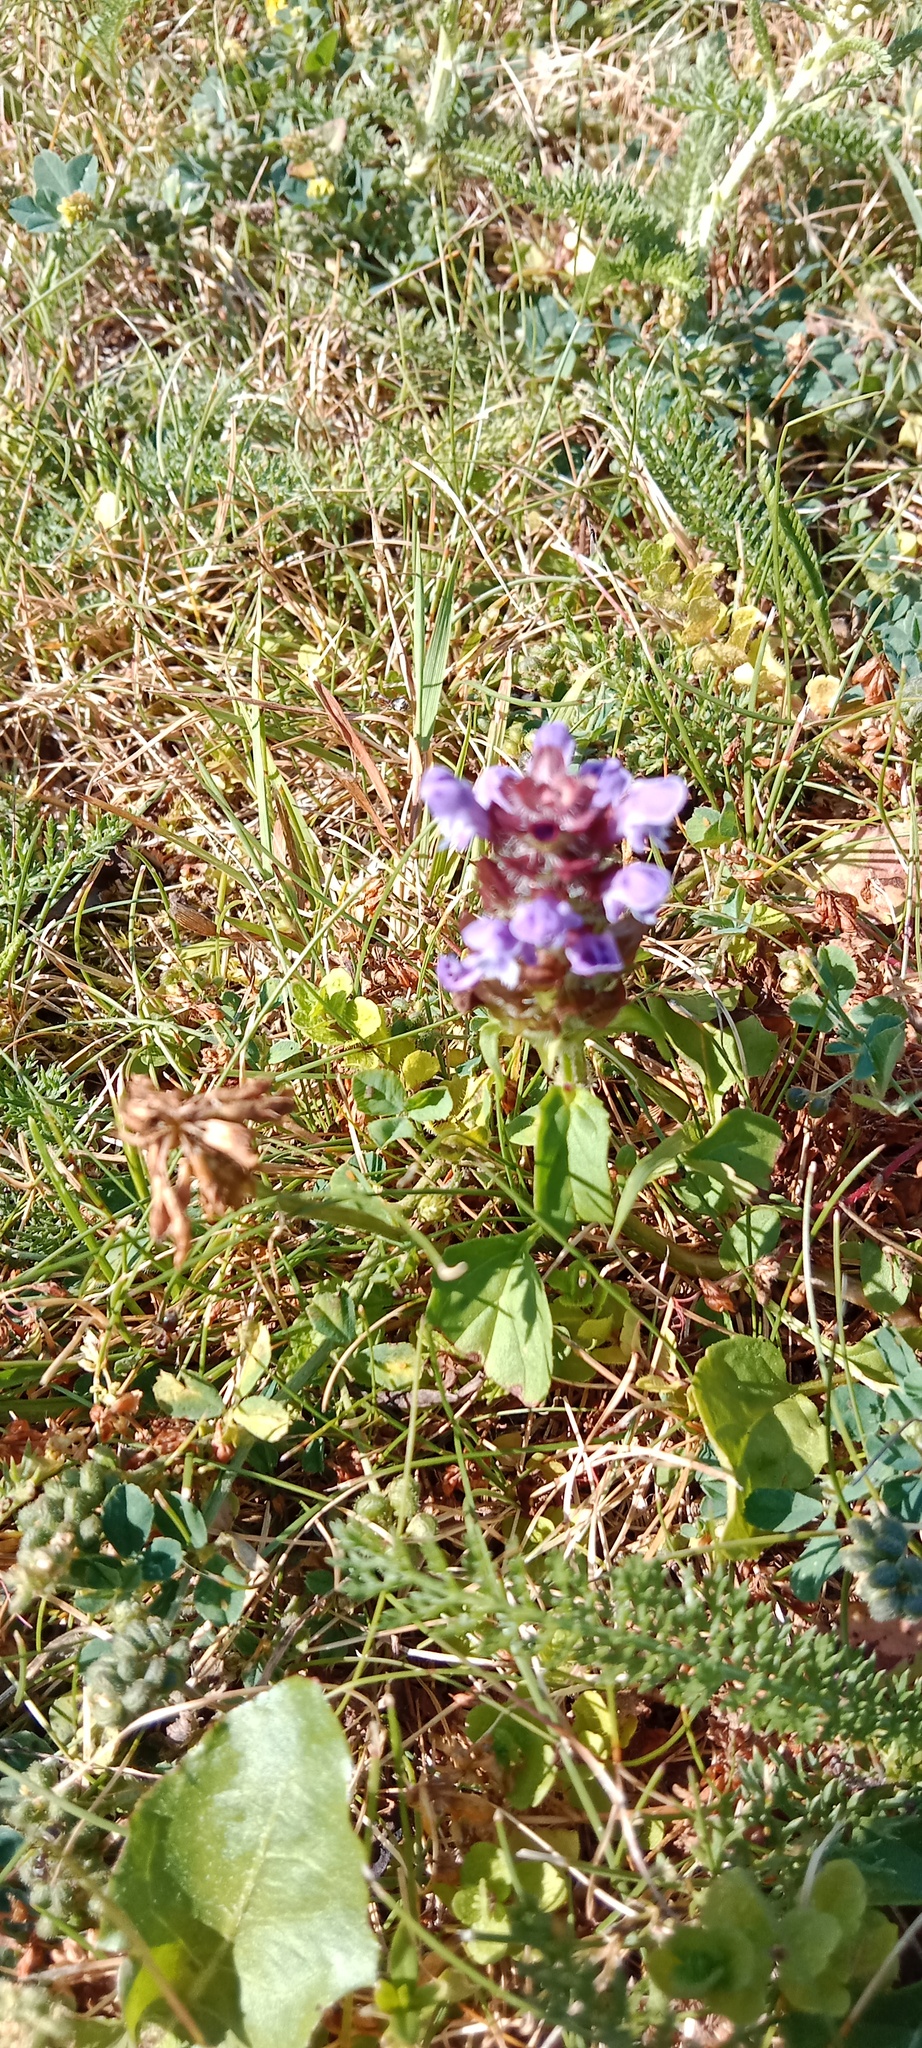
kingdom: Plantae
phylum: Tracheophyta
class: Magnoliopsida
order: Lamiales
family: Lamiaceae
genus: Prunella
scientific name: Prunella vulgaris
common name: Heal-all
